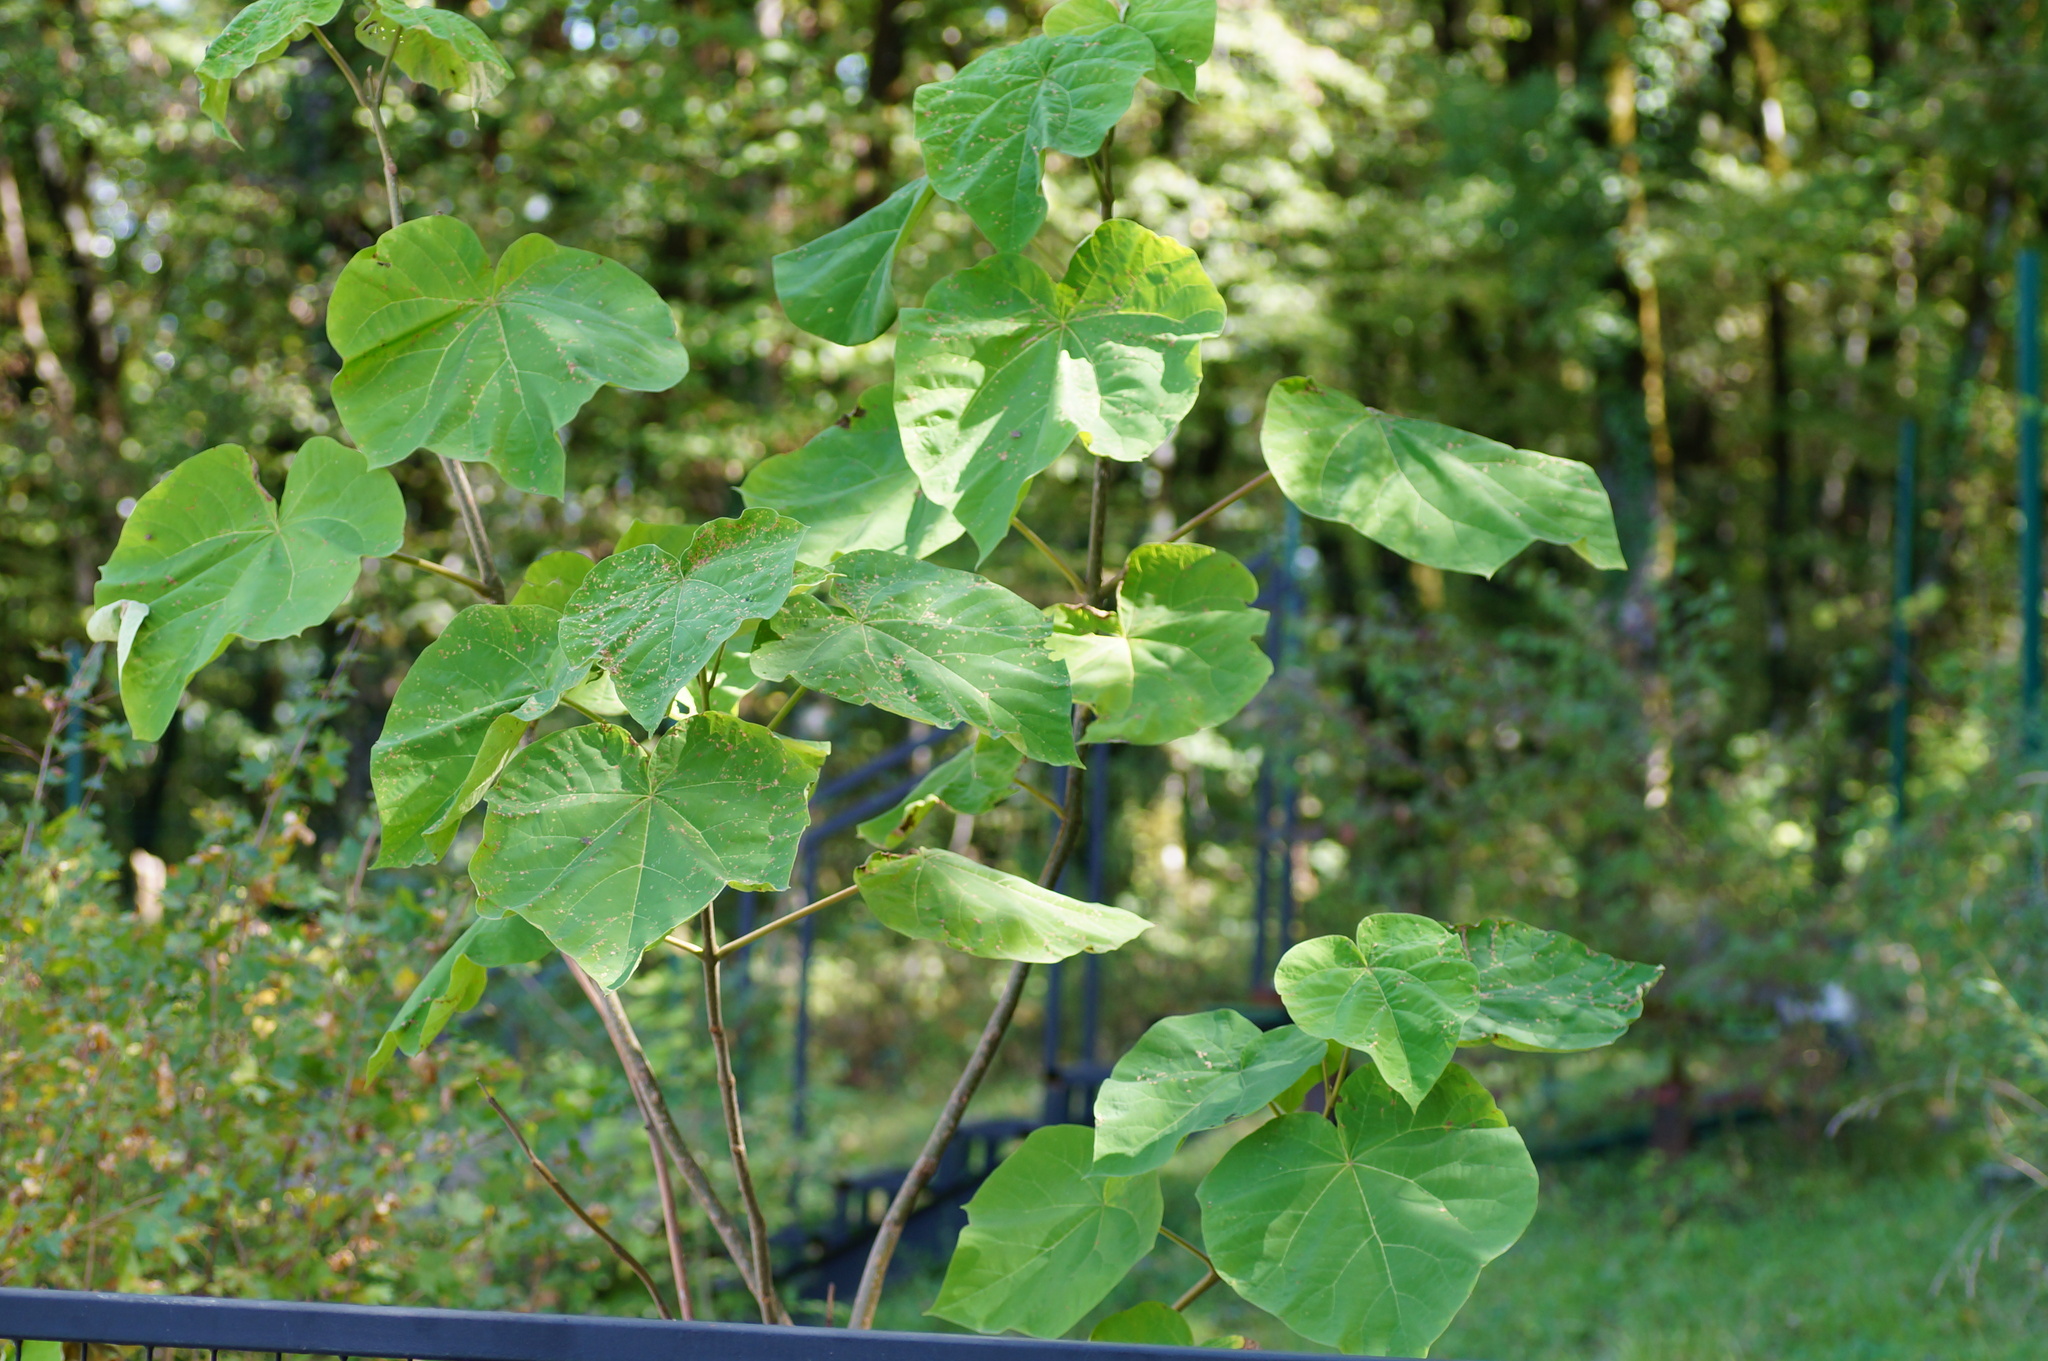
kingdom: Plantae
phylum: Tracheophyta
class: Magnoliopsida
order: Lamiales
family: Paulowniaceae
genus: Paulownia
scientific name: Paulownia tomentosa
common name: Foxglove-tree
